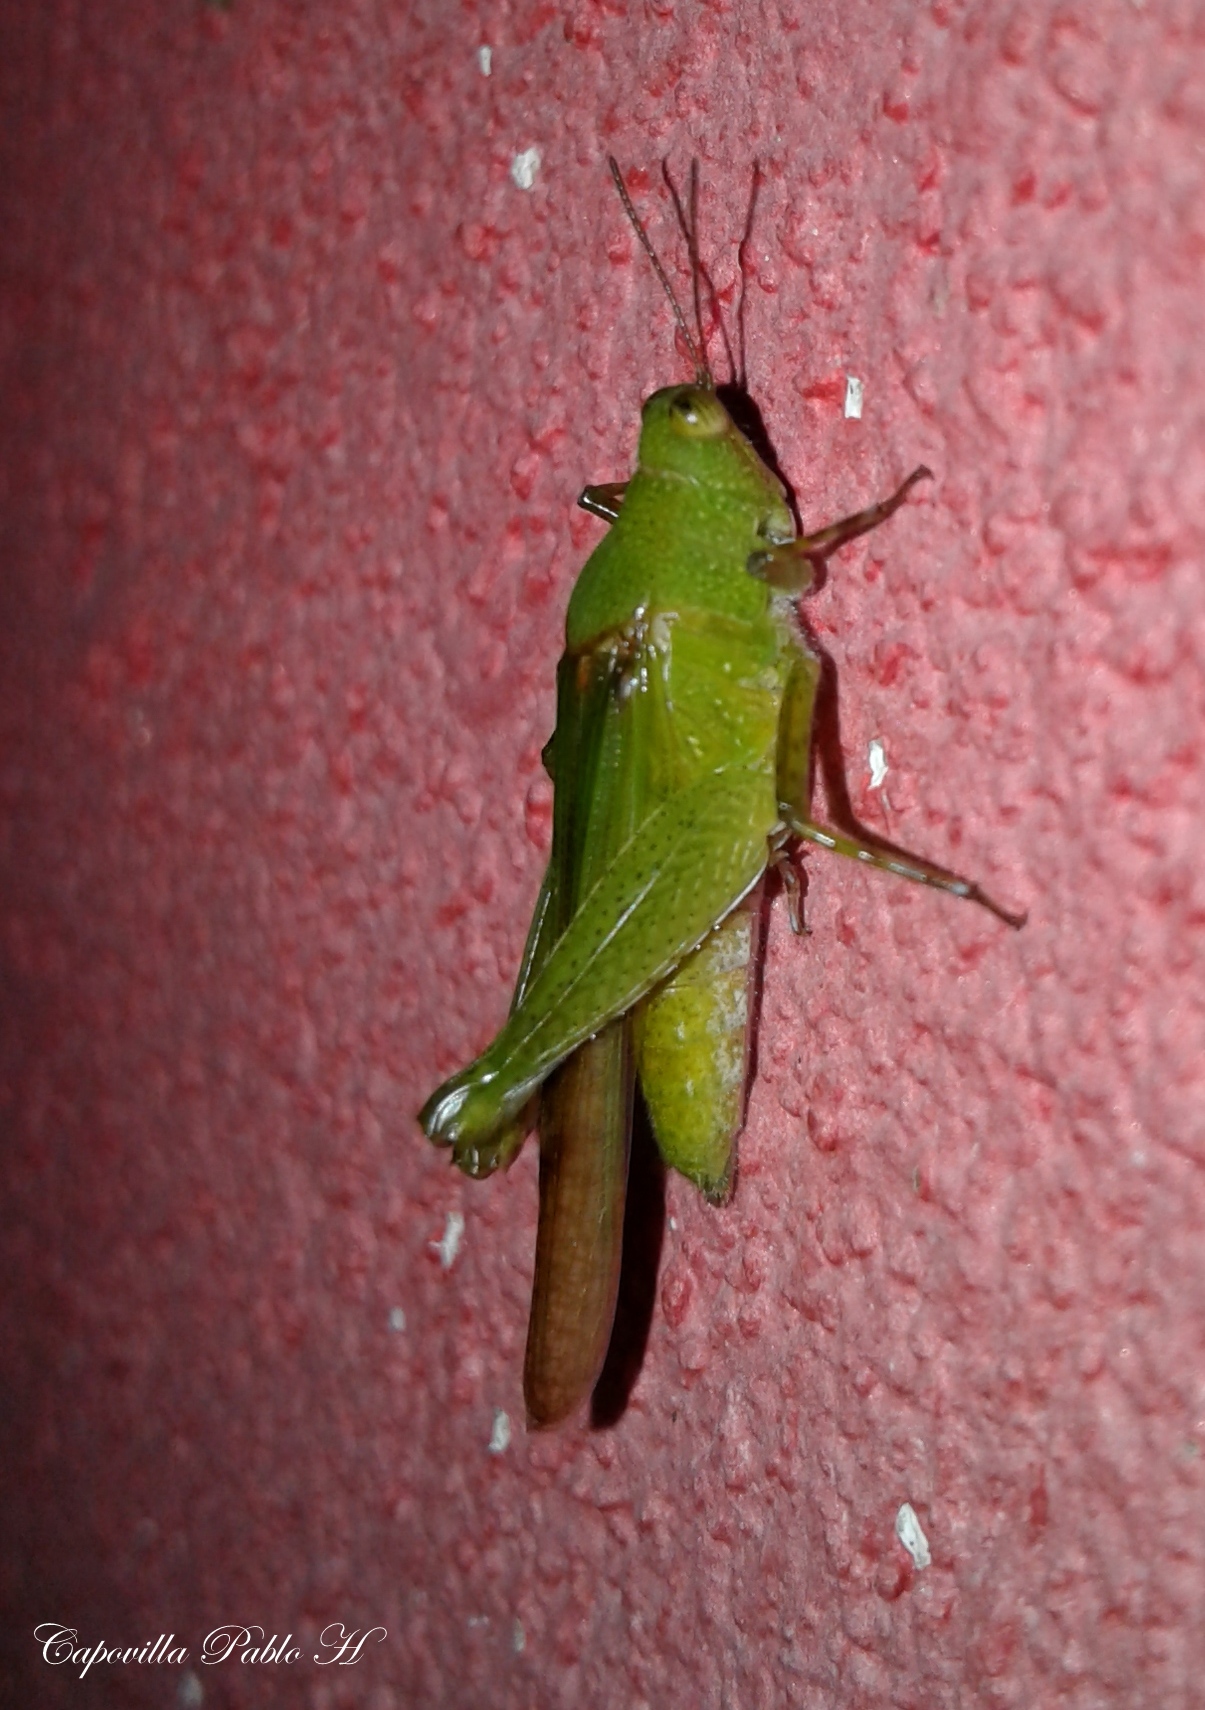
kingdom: Animalia
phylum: Arthropoda
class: Insecta
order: Orthoptera
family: Acrididae
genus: Paulinia
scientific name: Paulinia acuminata
